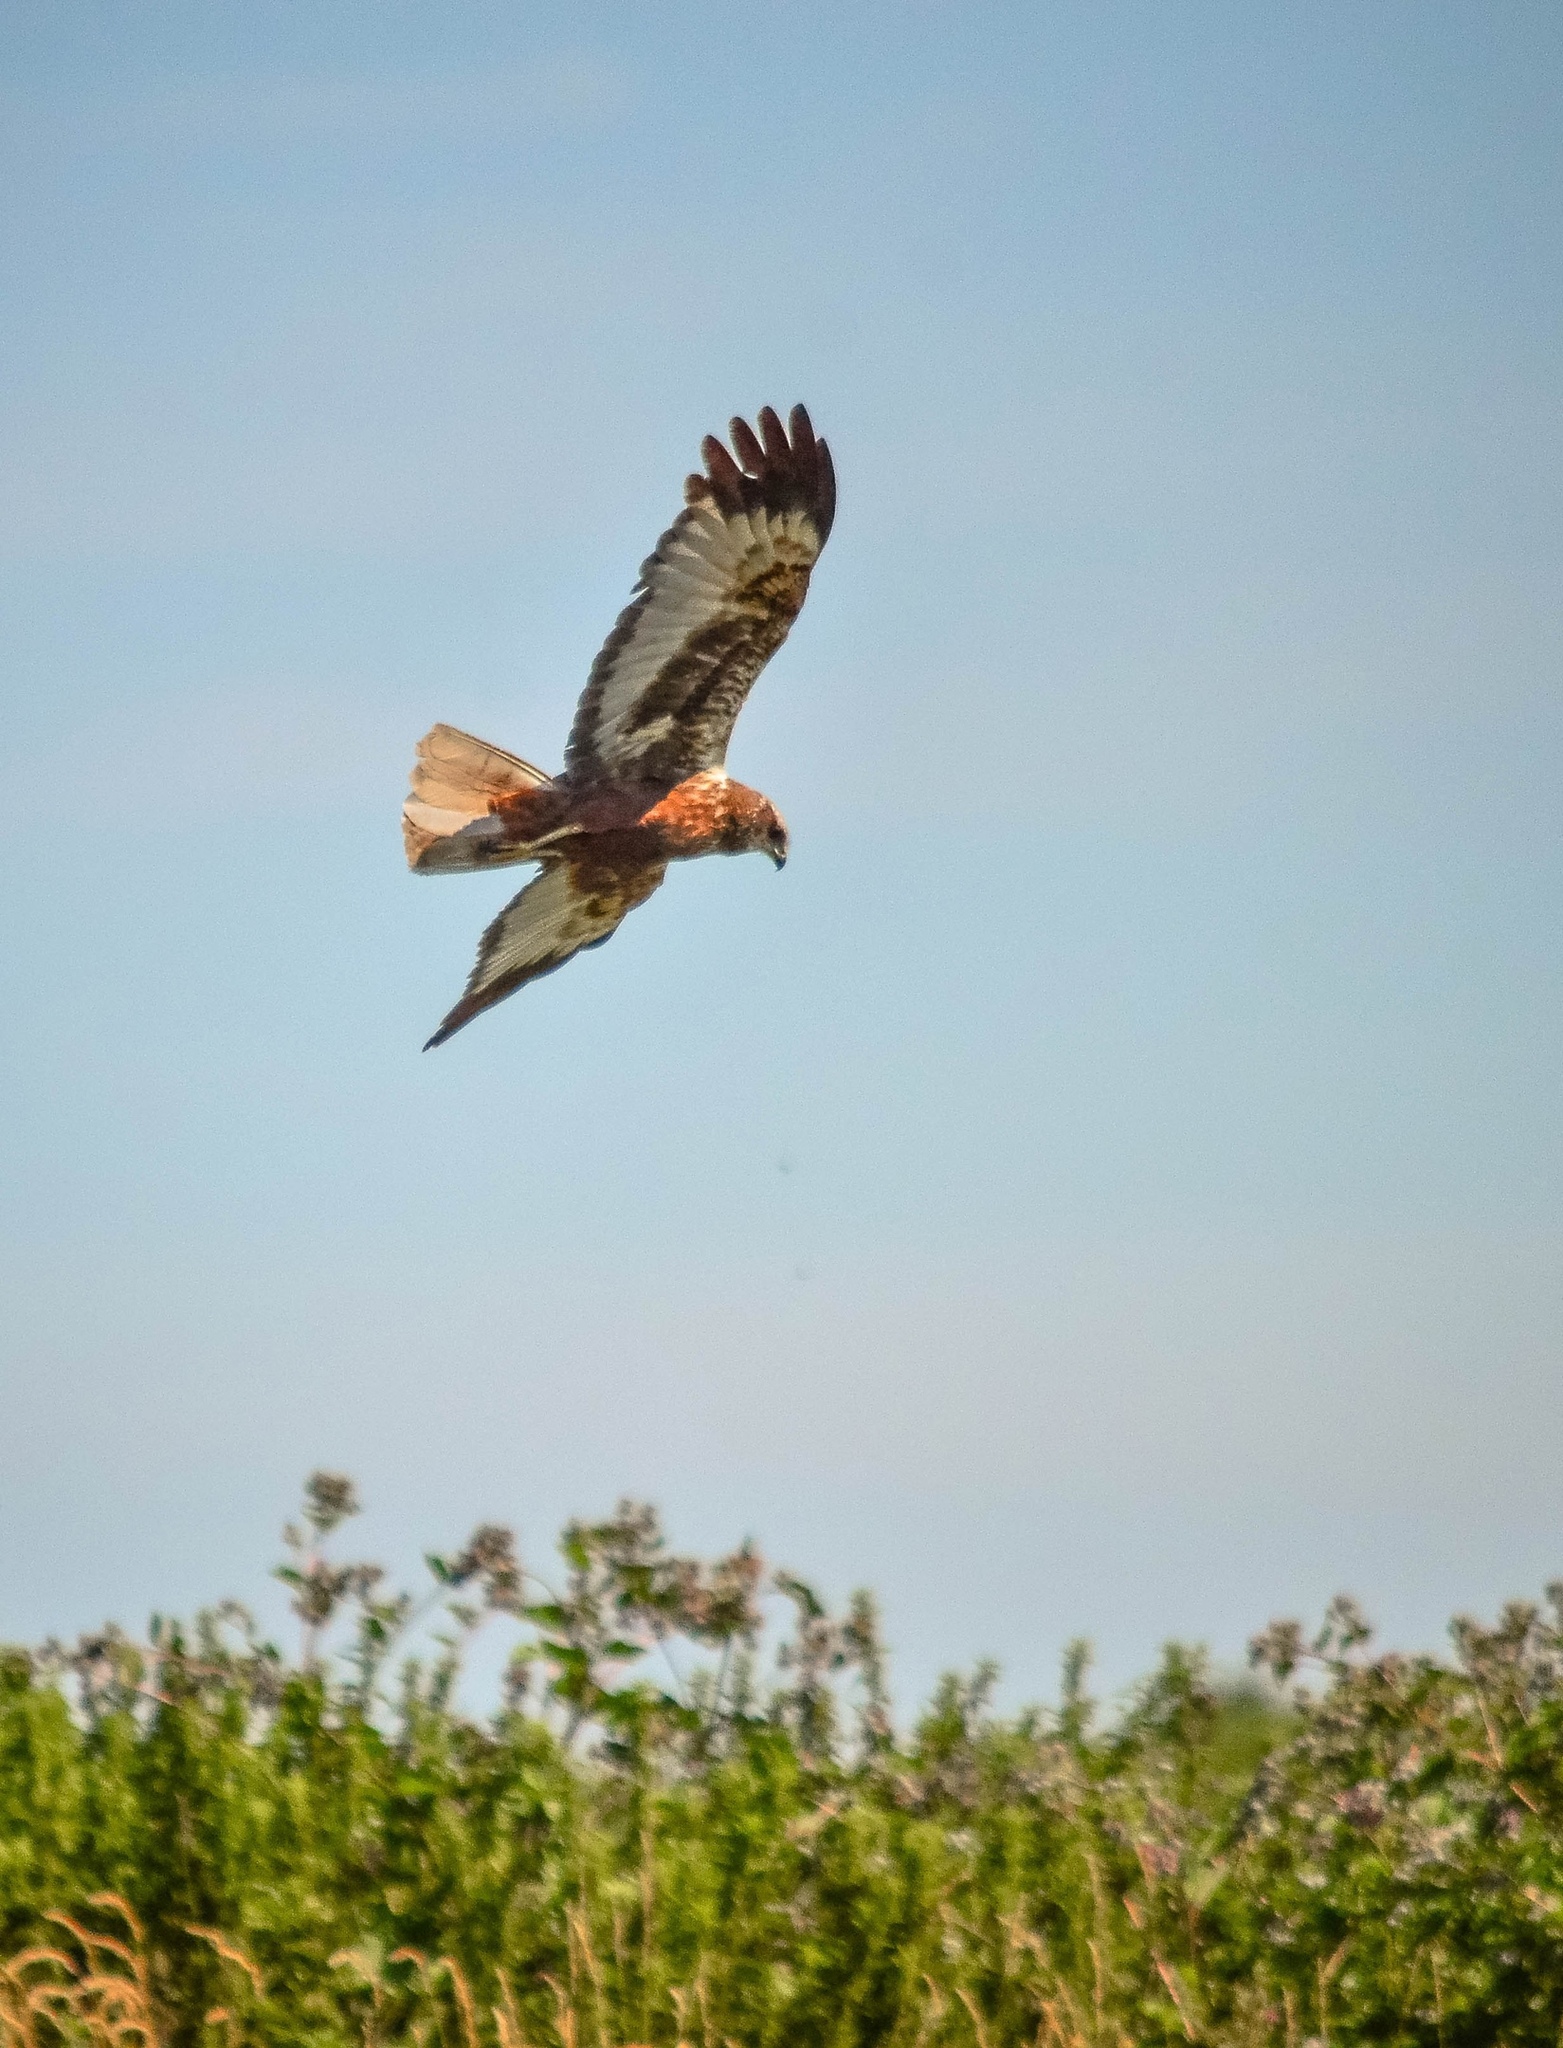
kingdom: Animalia
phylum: Chordata
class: Aves
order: Accipitriformes
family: Accipitridae
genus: Circus
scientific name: Circus aeruginosus
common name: Western marsh harrier
